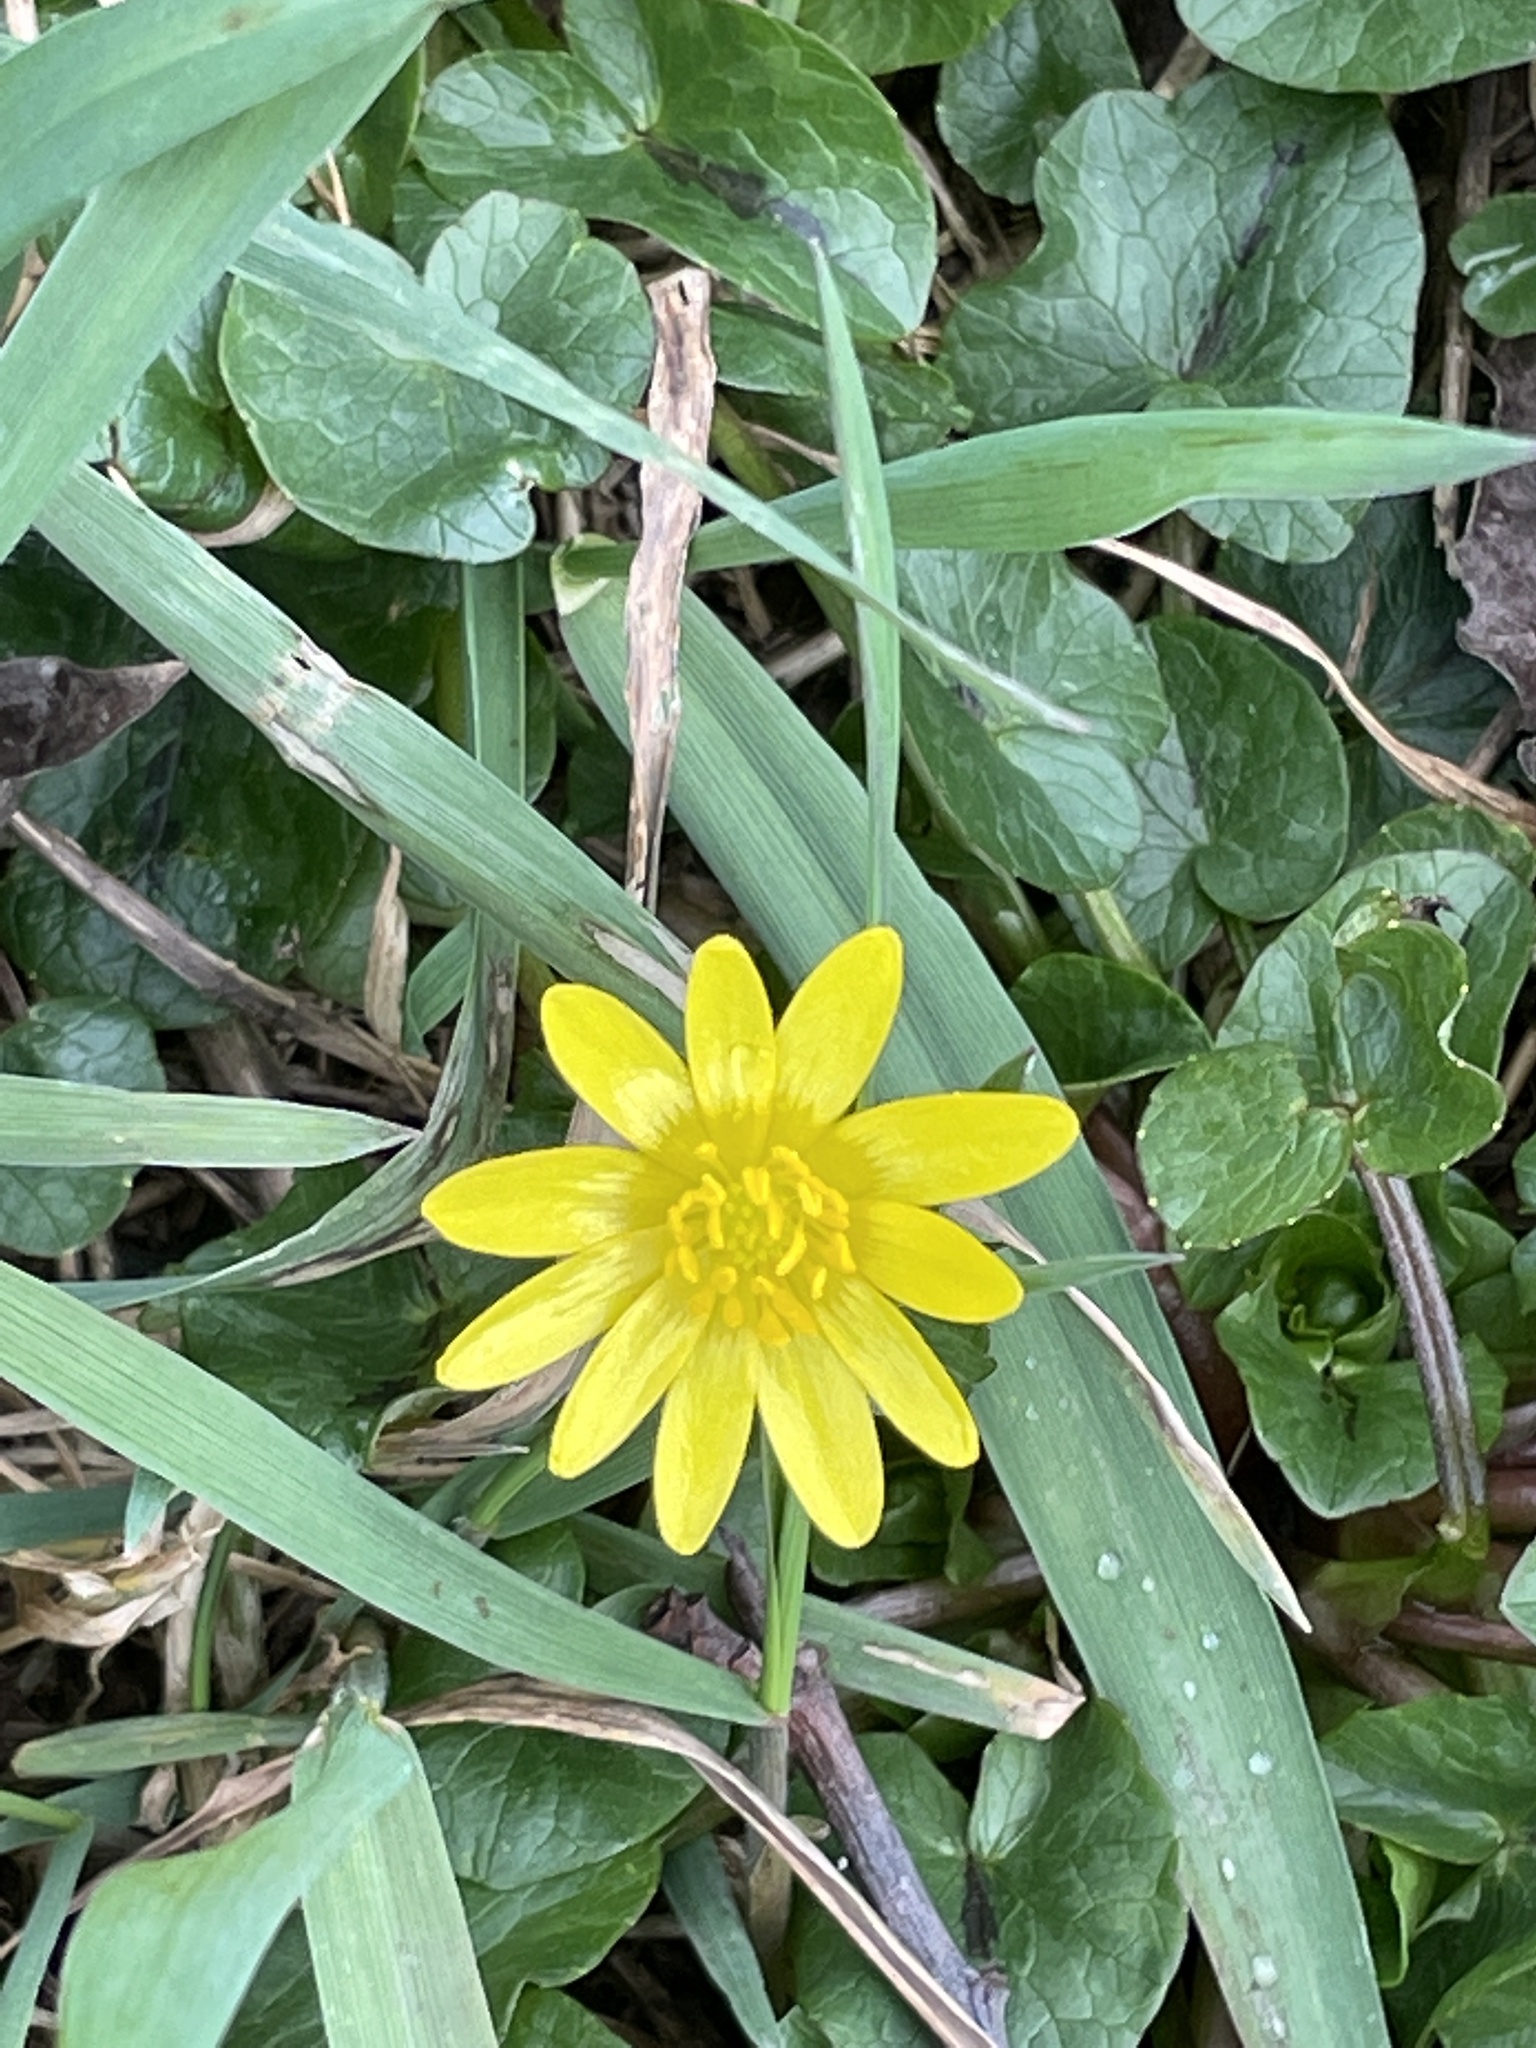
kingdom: Plantae
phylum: Tracheophyta
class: Magnoliopsida
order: Ranunculales
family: Ranunculaceae
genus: Ficaria
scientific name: Ficaria verna
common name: Lesser celandine
